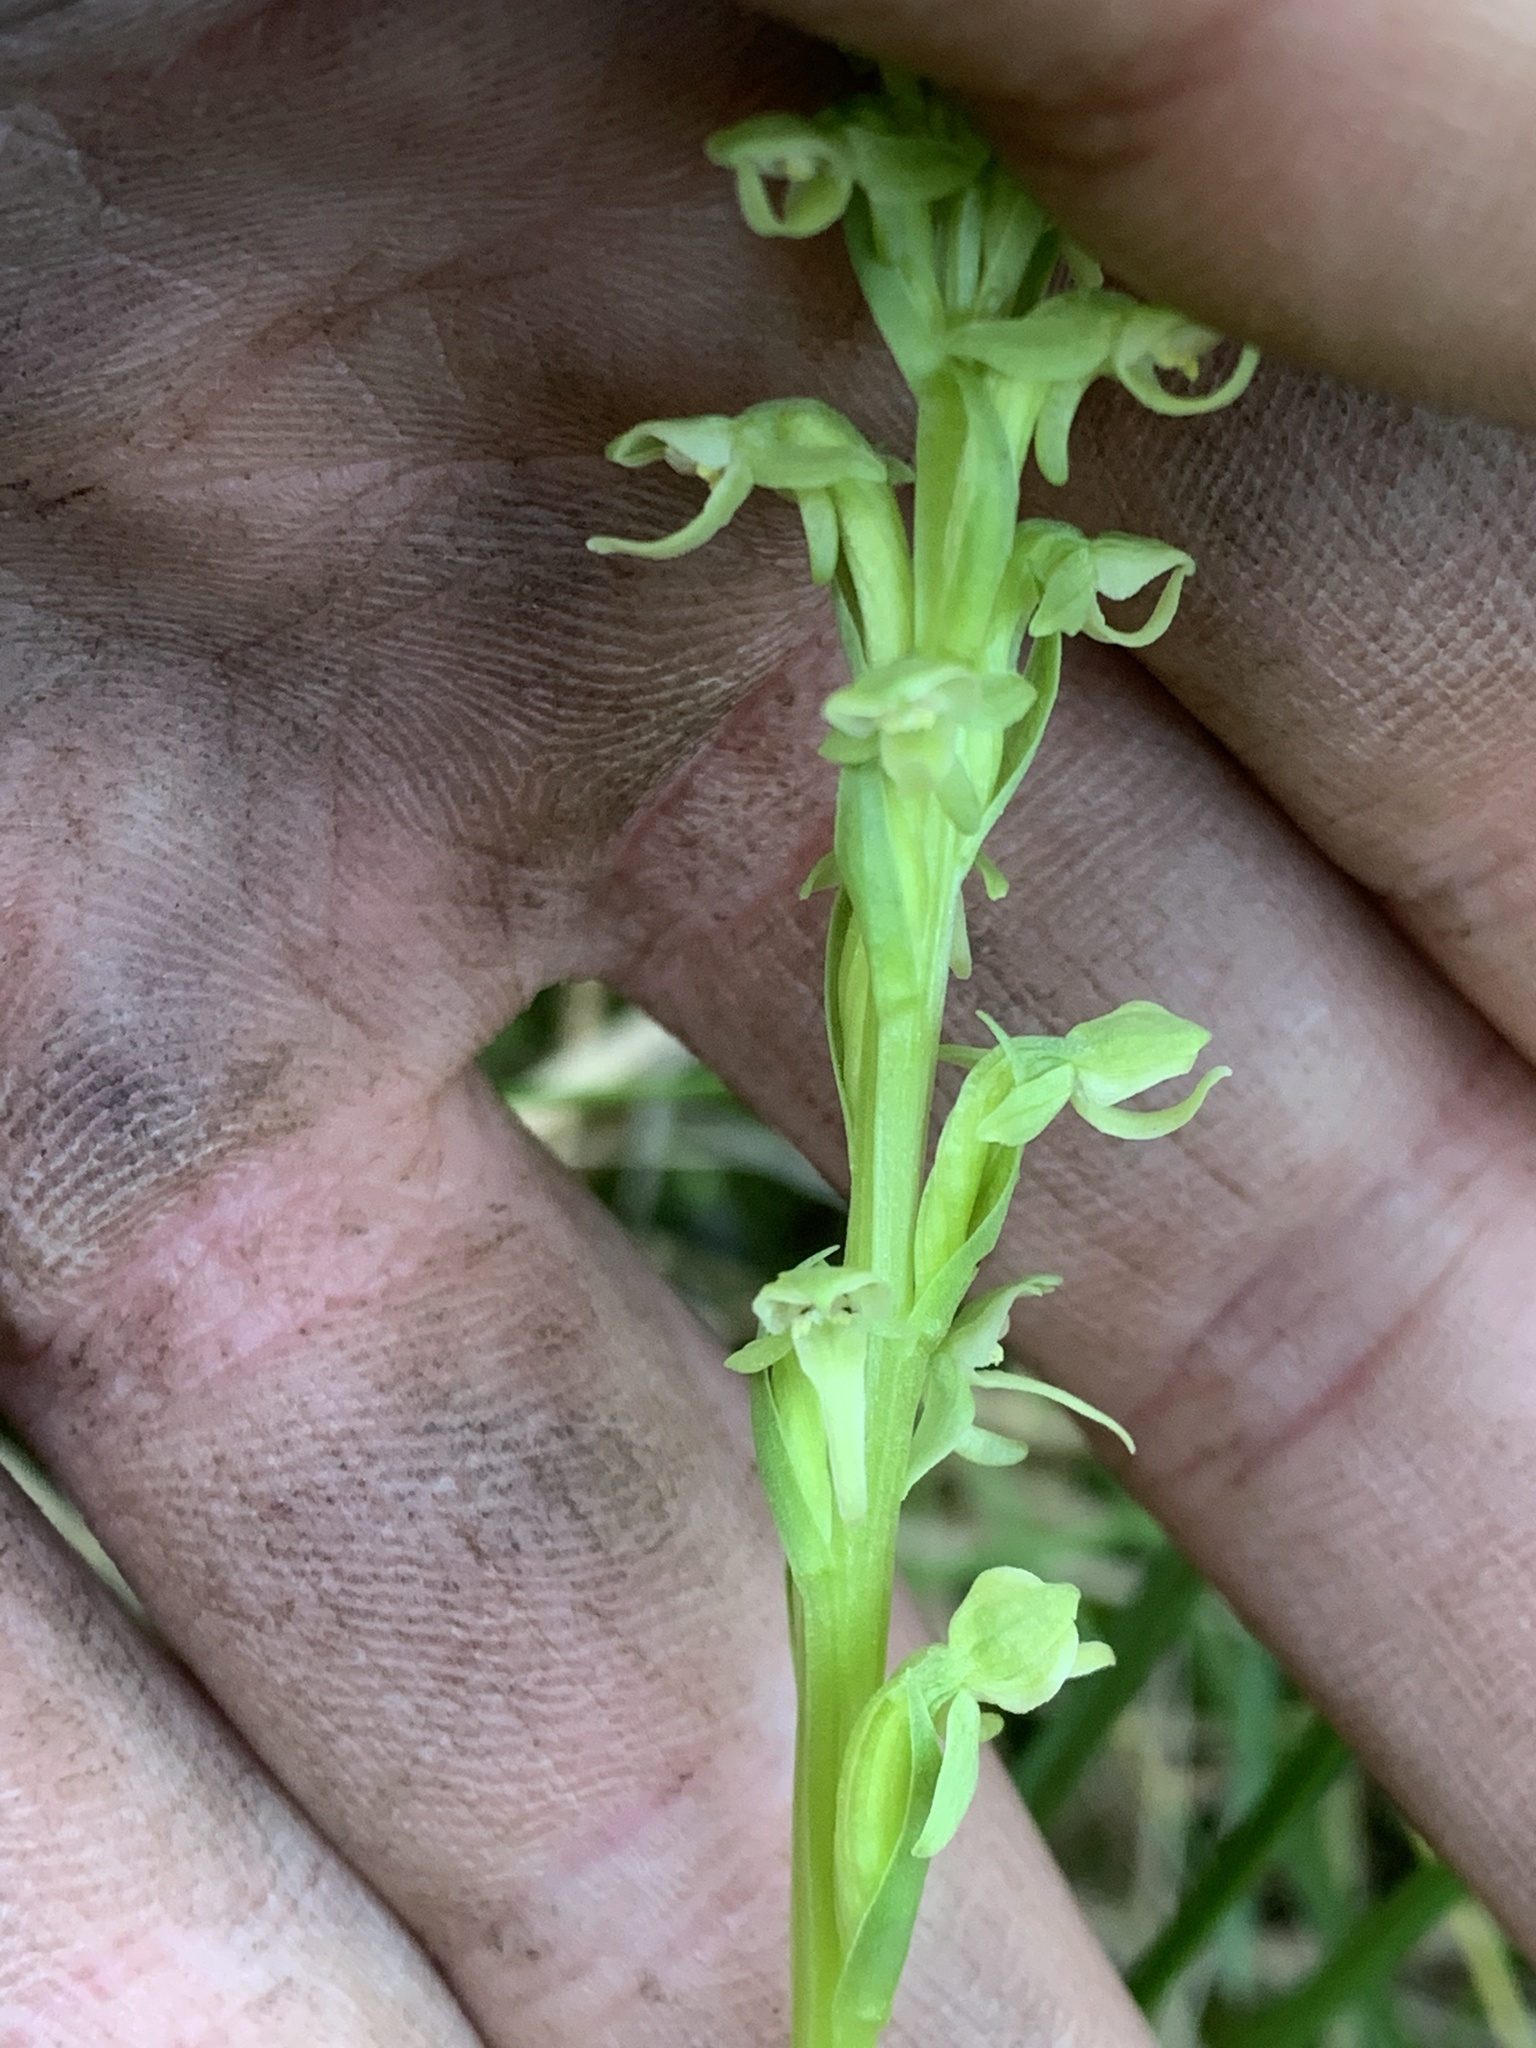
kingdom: Plantae
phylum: Tracheophyta
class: Liliopsida
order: Asparagales
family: Orchidaceae
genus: Platanthera
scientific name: Platanthera huronensis
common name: Fragrant green orchid
